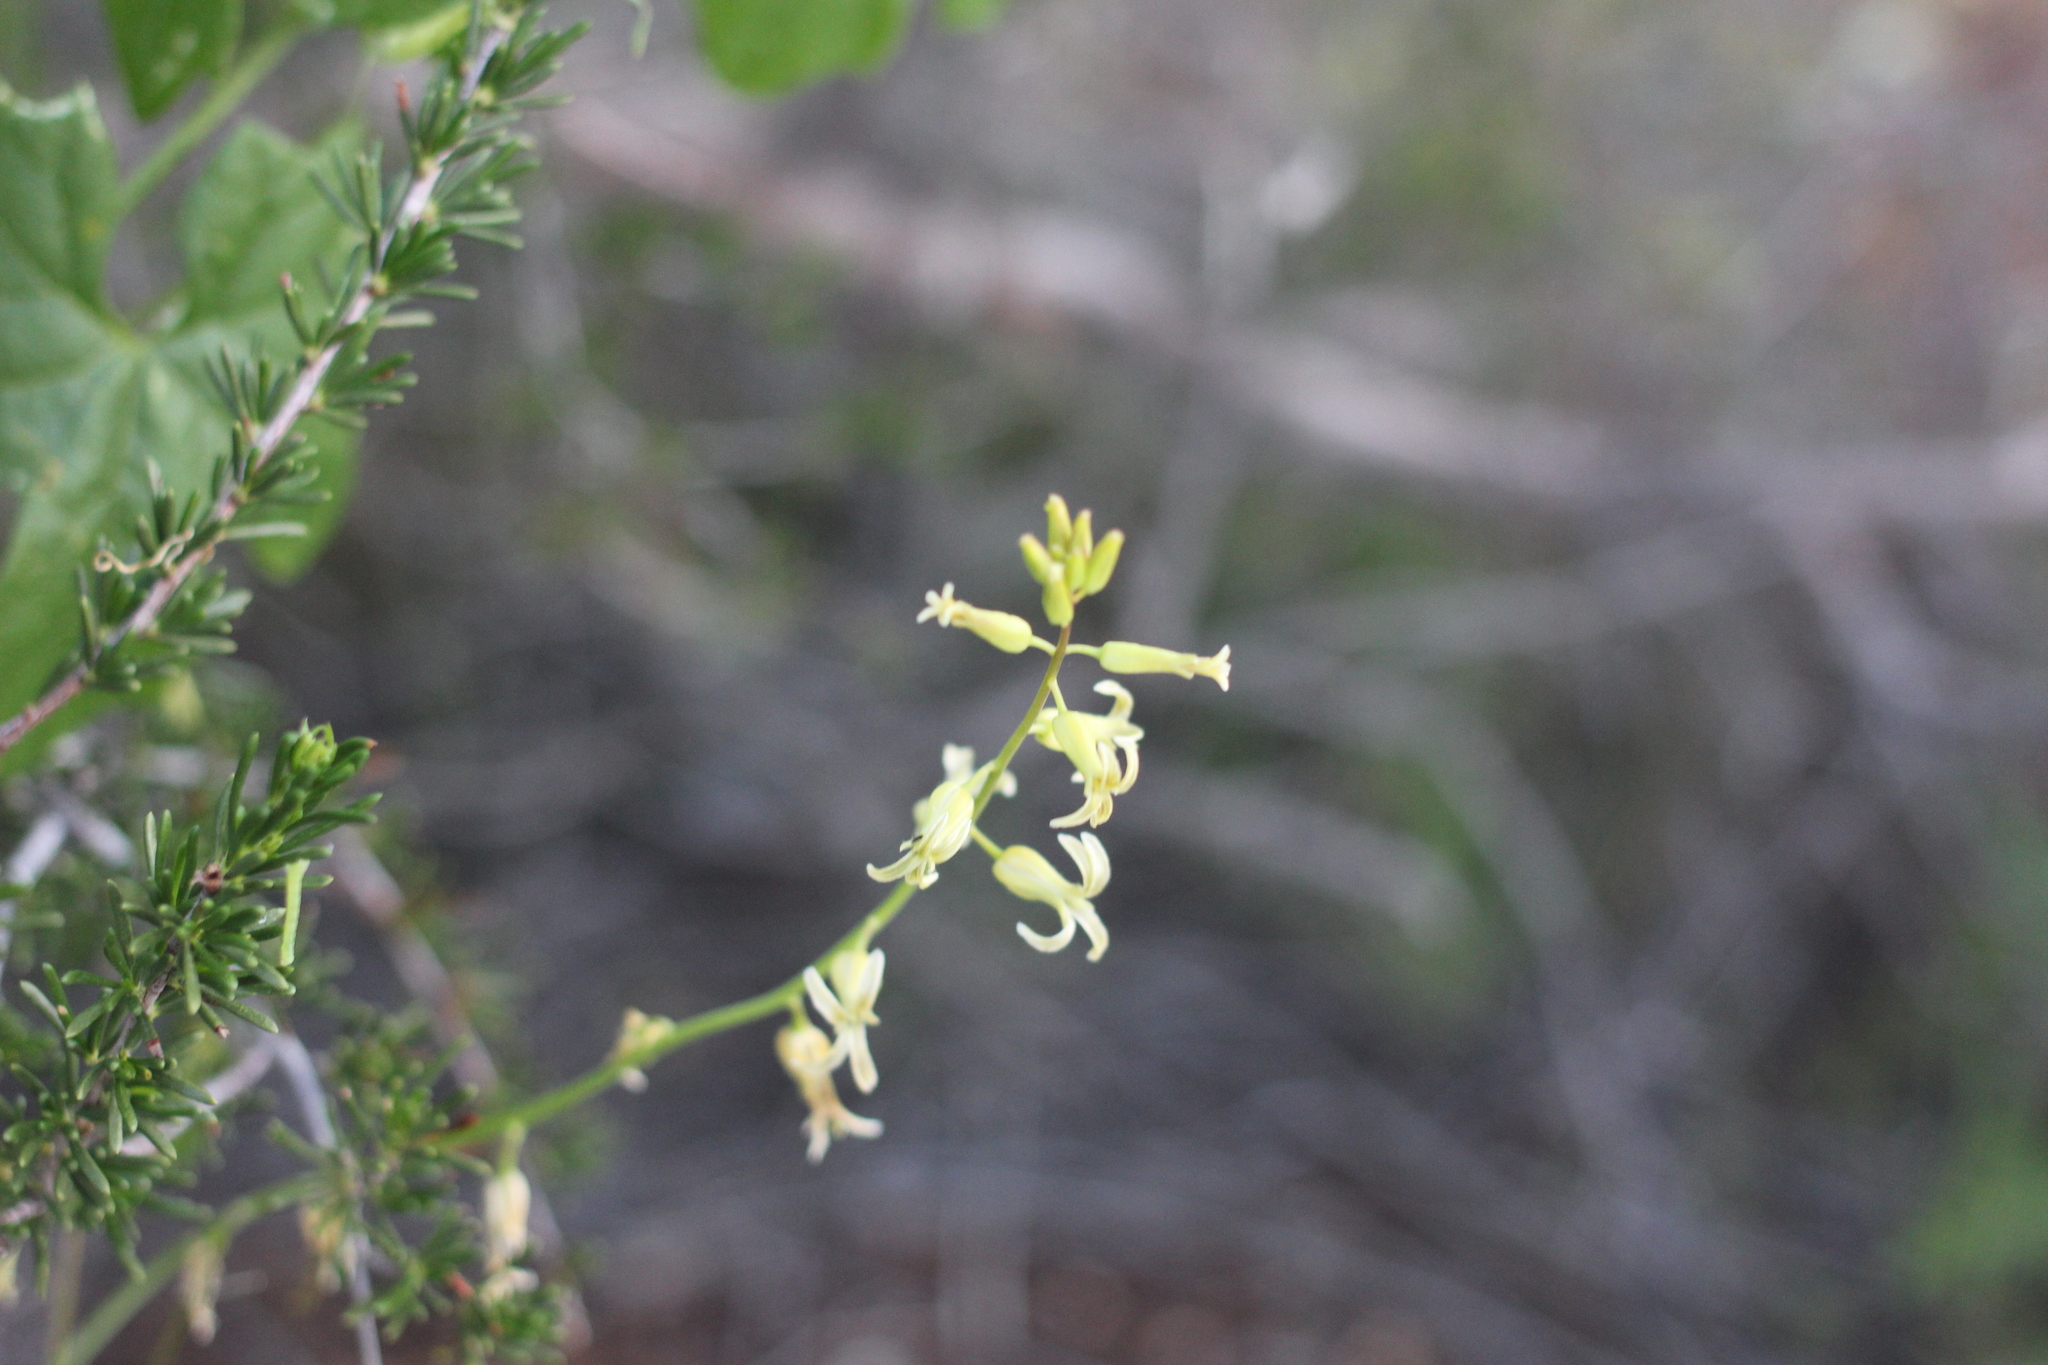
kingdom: Plantae
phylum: Tracheophyta
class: Magnoliopsida
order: Brassicales
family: Brassicaceae
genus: Streptanthus
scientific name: Streptanthus heterophyllus
